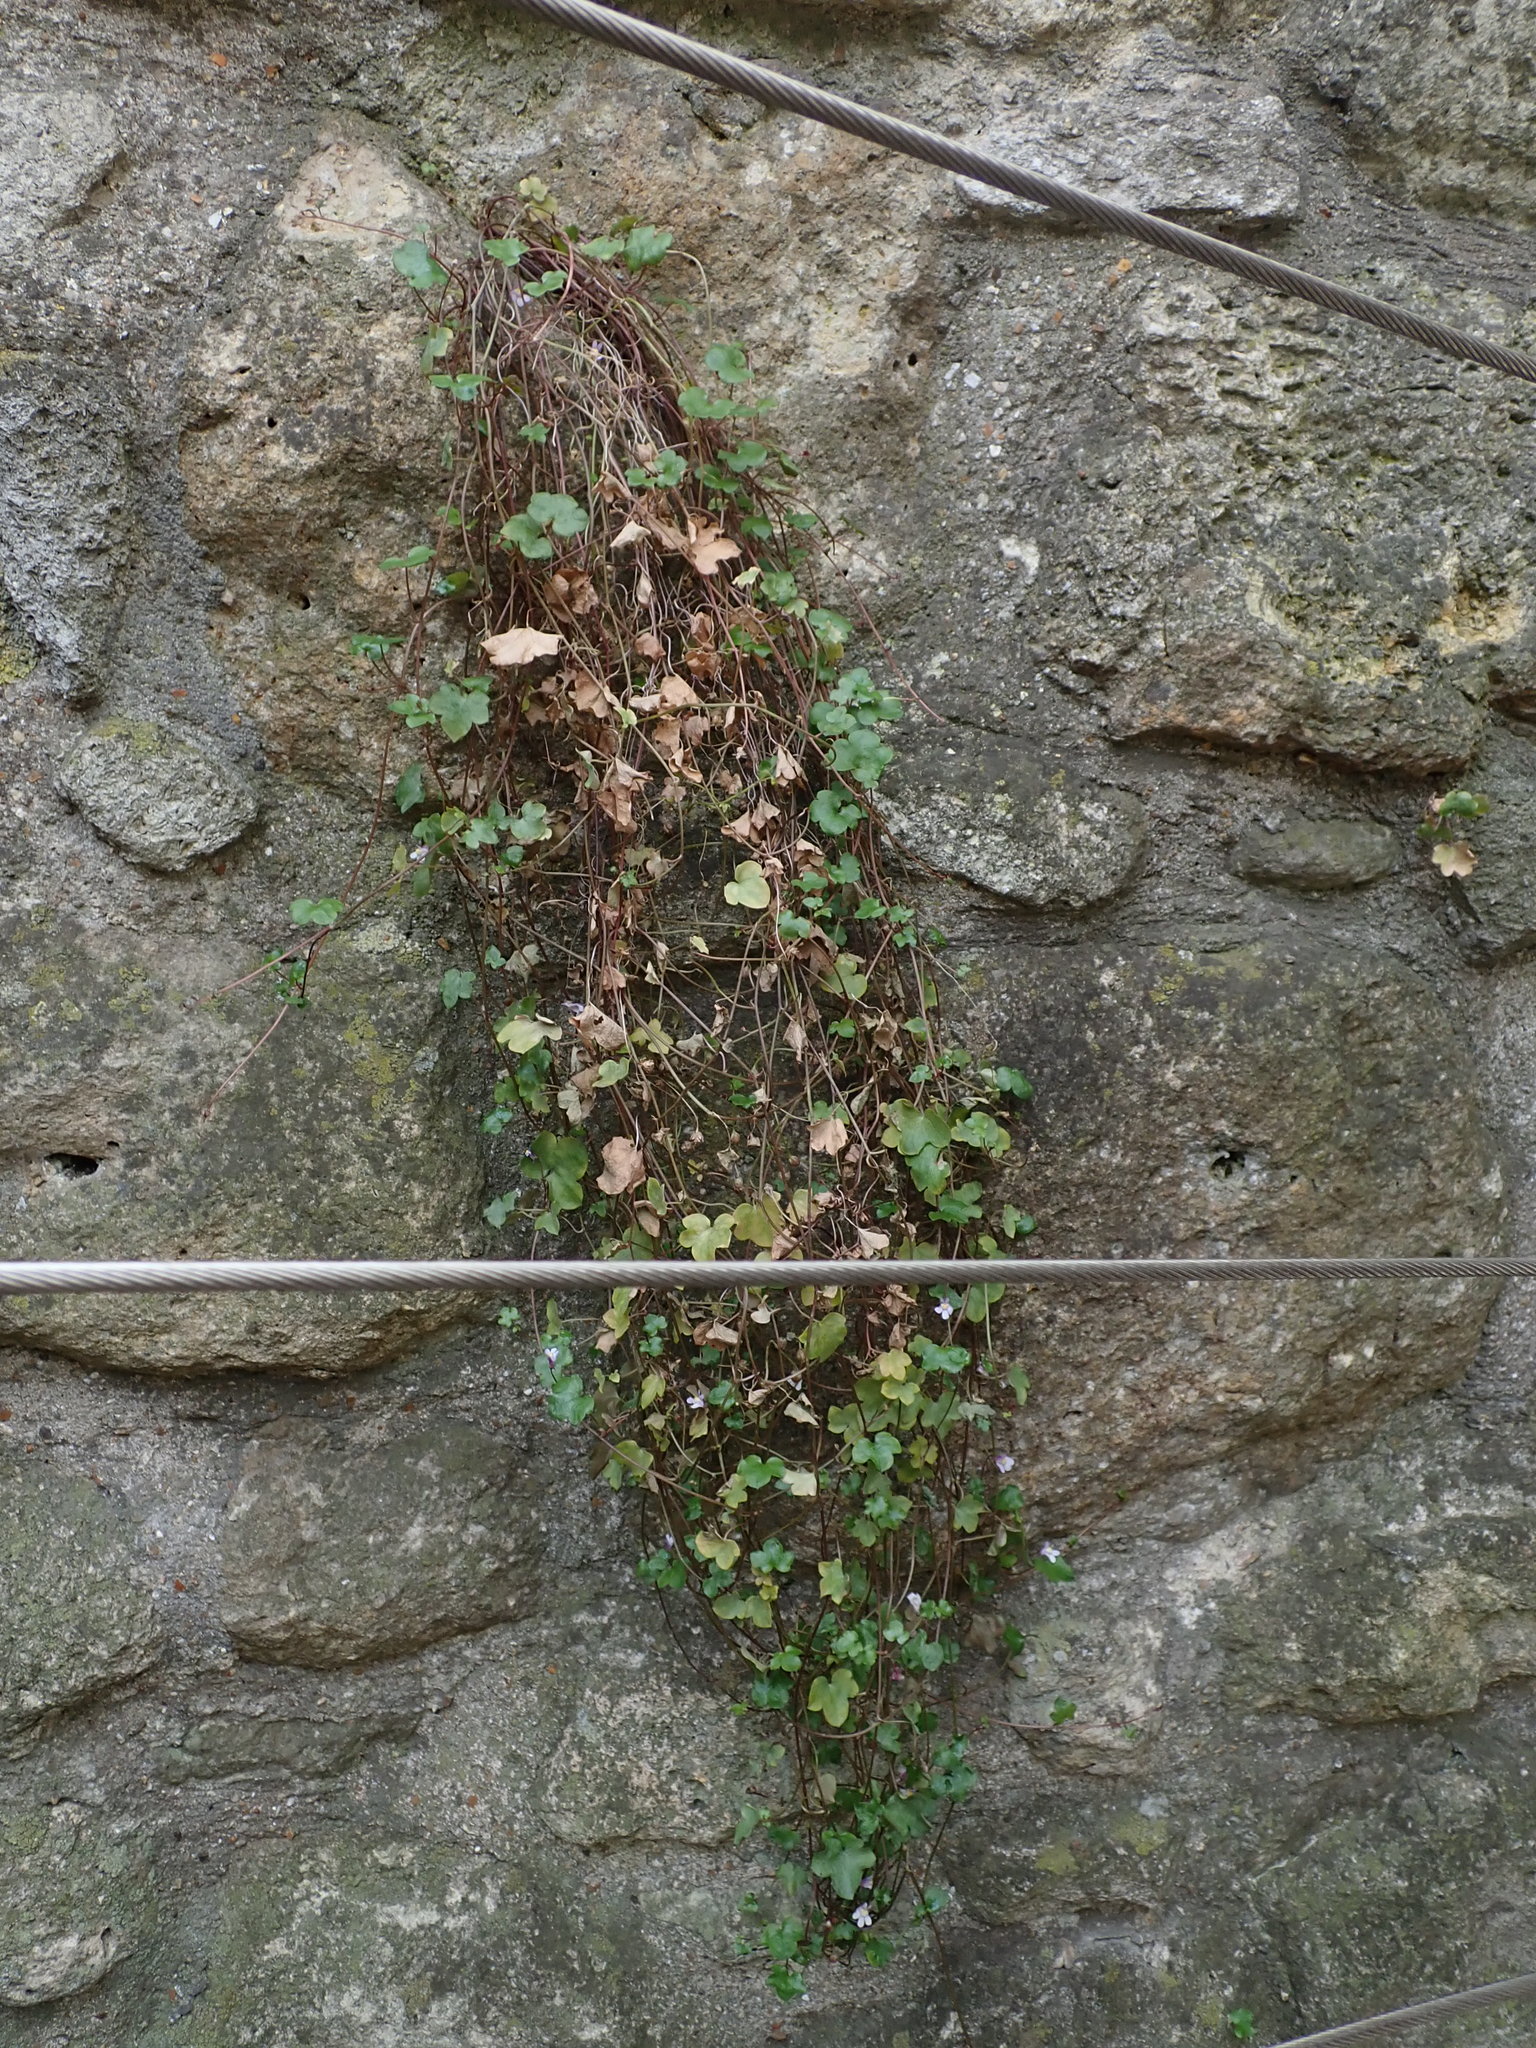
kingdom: Plantae
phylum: Tracheophyta
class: Magnoliopsida
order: Lamiales
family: Plantaginaceae
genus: Cymbalaria
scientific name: Cymbalaria muralis
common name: Ivy-leaved toadflax
